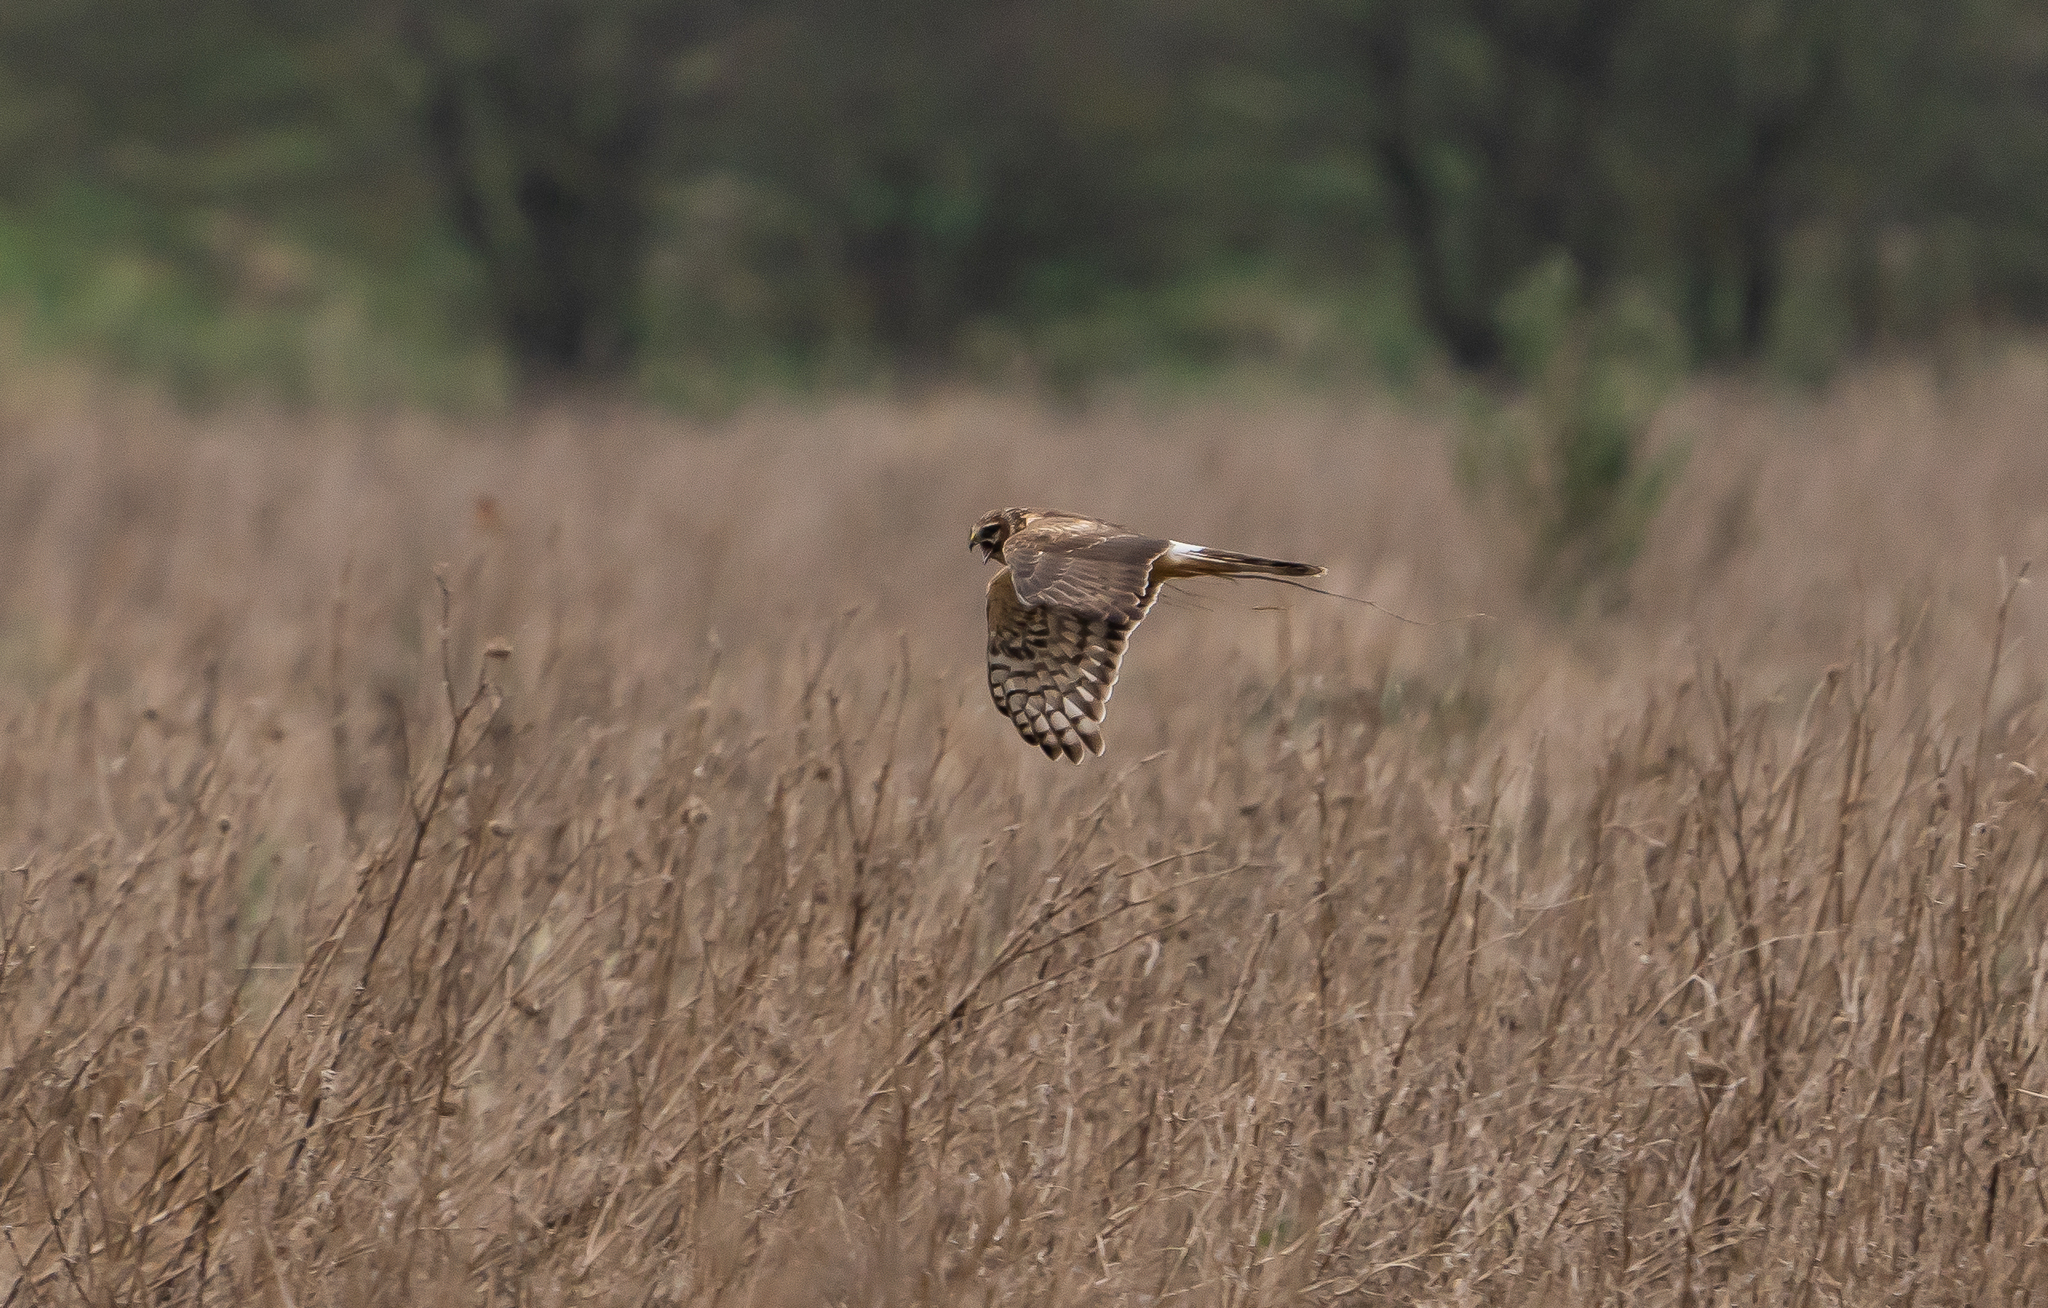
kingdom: Animalia
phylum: Chordata
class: Aves
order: Accipitriformes
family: Accipitridae
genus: Circus
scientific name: Circus cyaneus
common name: Hen harrier
